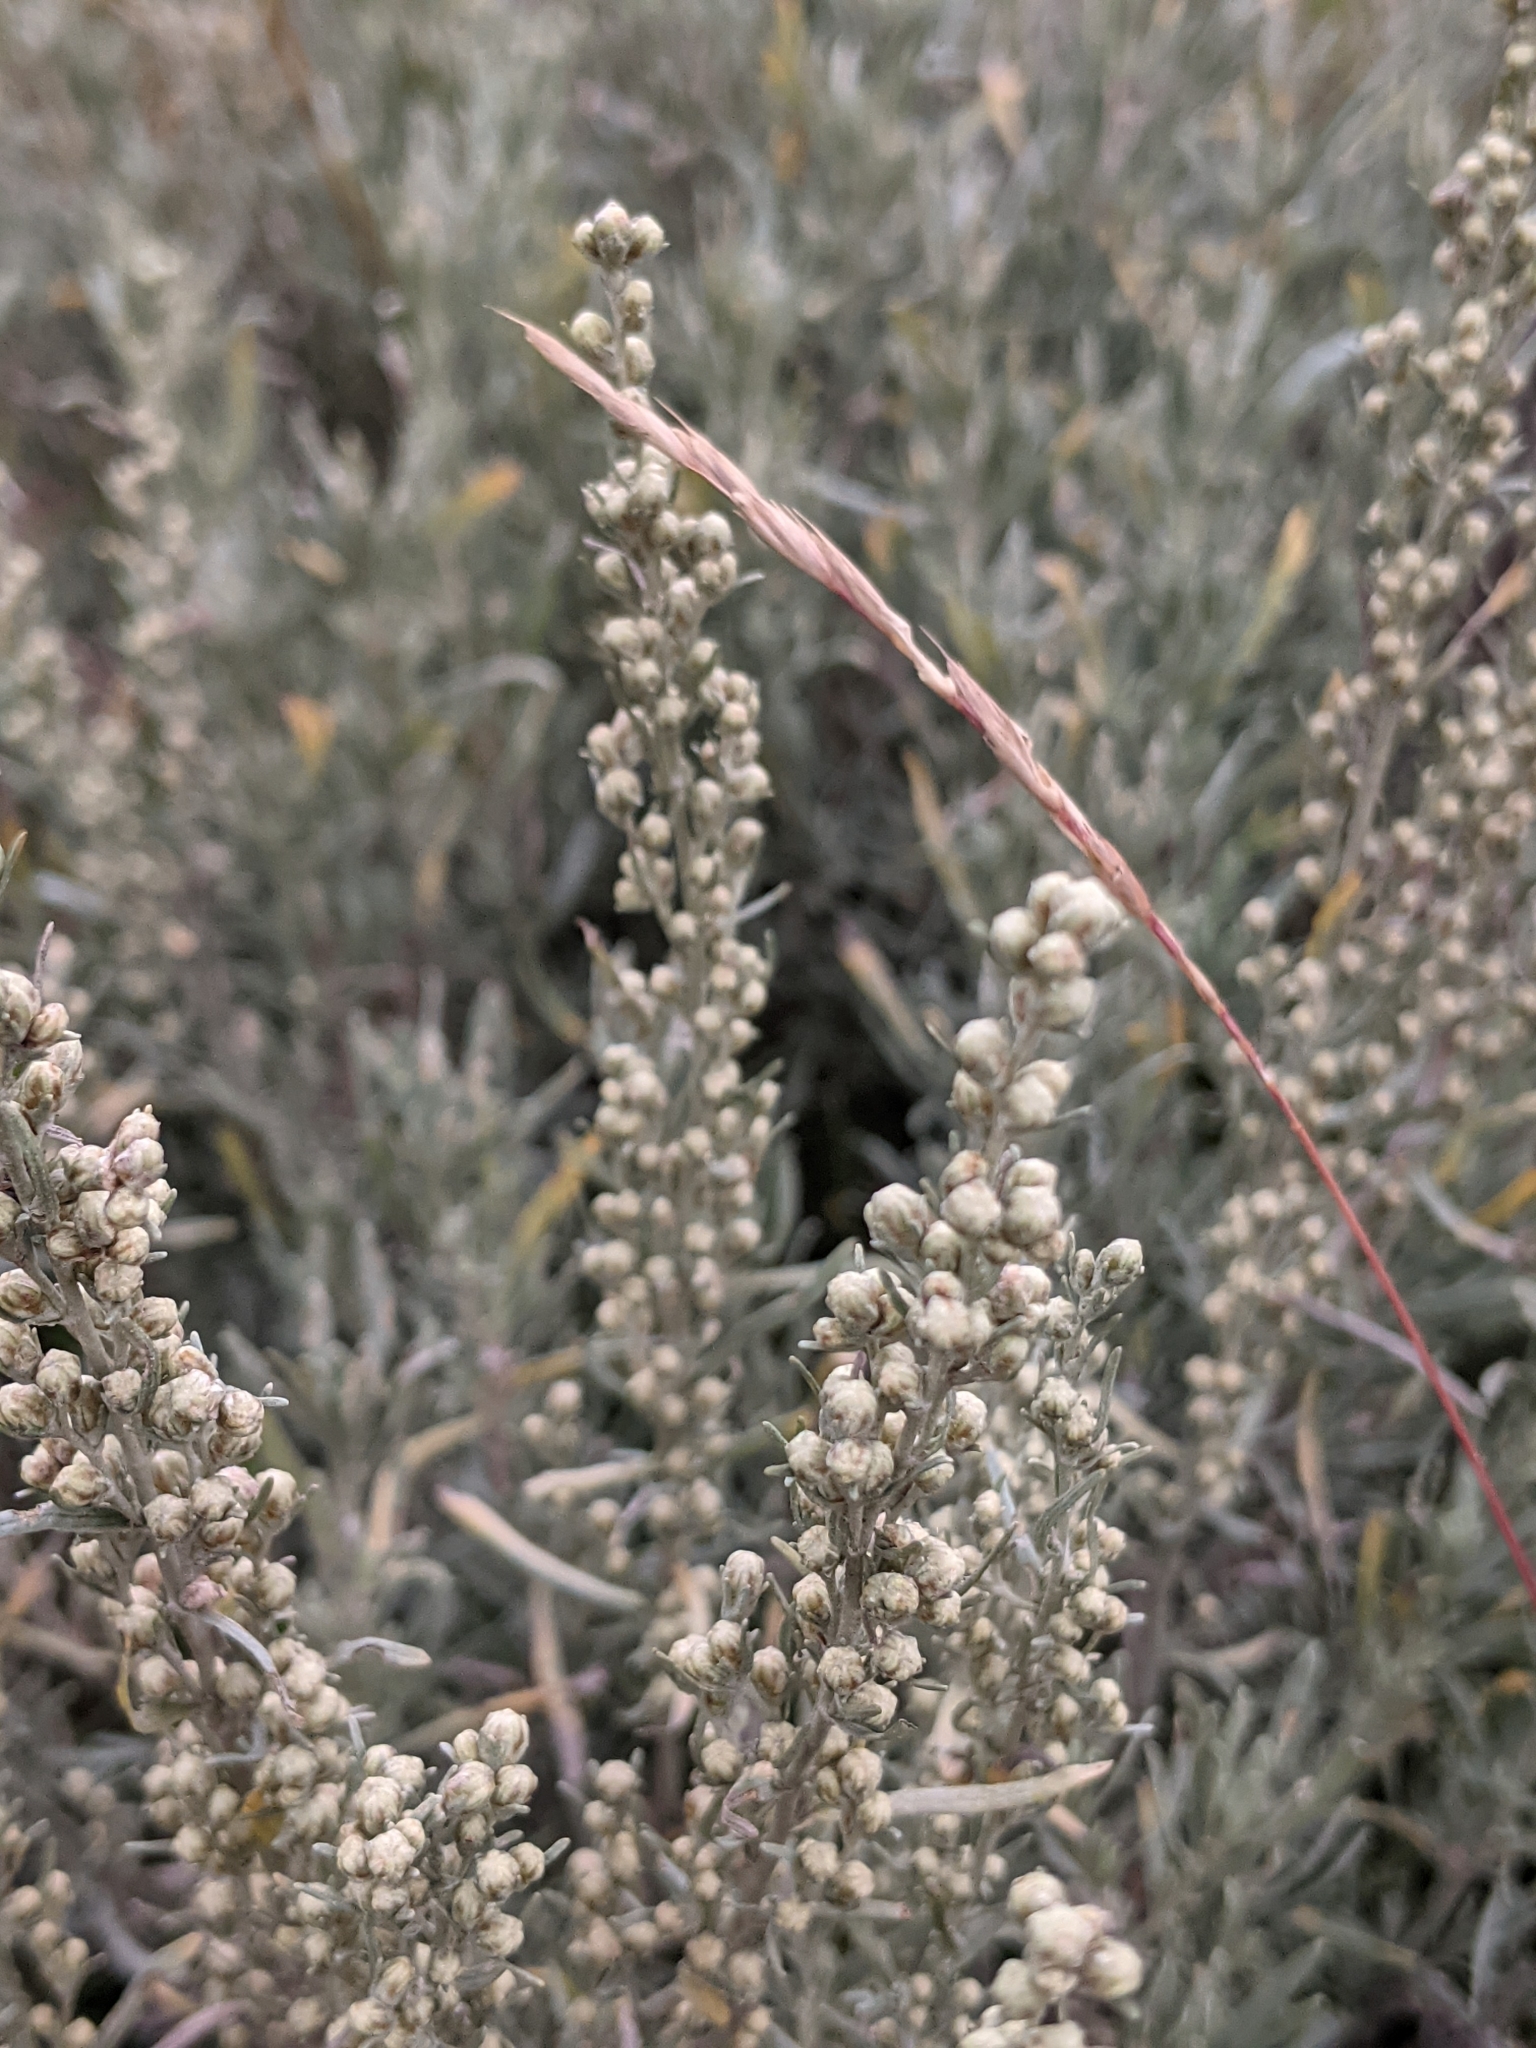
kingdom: Plantae
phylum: Tracheophyta
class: Magnoliopsida
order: Asterales
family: Asteraceae
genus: Artemisia
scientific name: Artemisia ludoviciana
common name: Western mugwort
